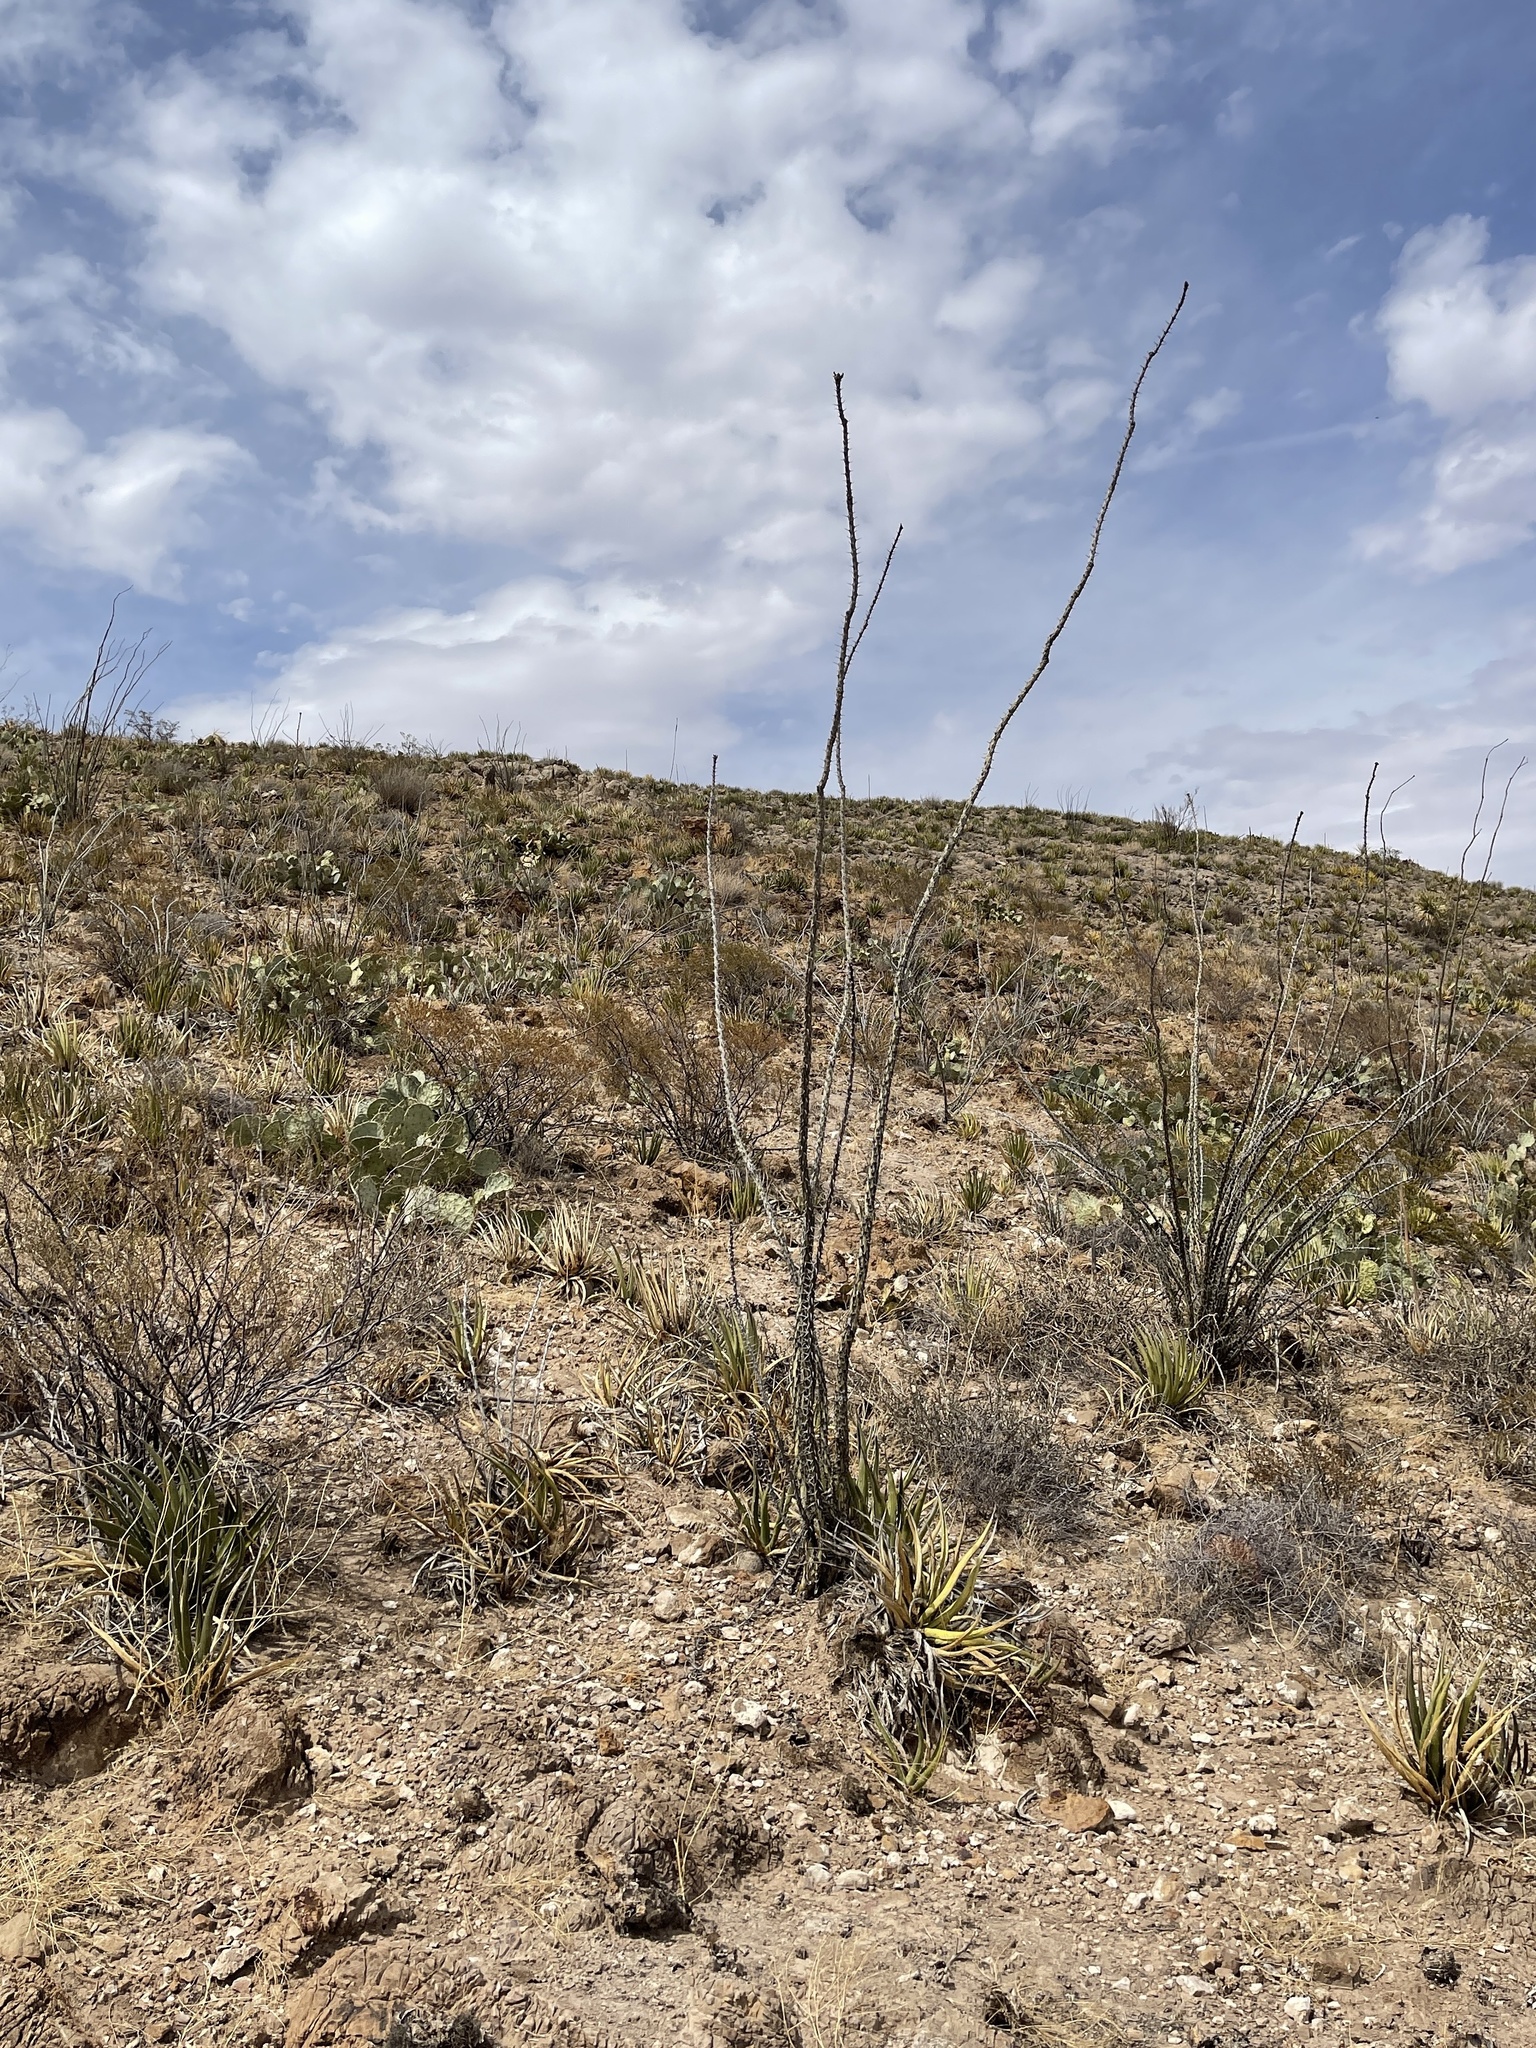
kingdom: Plantae
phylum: Tracheophyta
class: Magnoliopsida
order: Ericales
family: Fouquieriaceae
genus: Fouquieria
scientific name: Fouquieria splendens
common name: Vine-cactus
